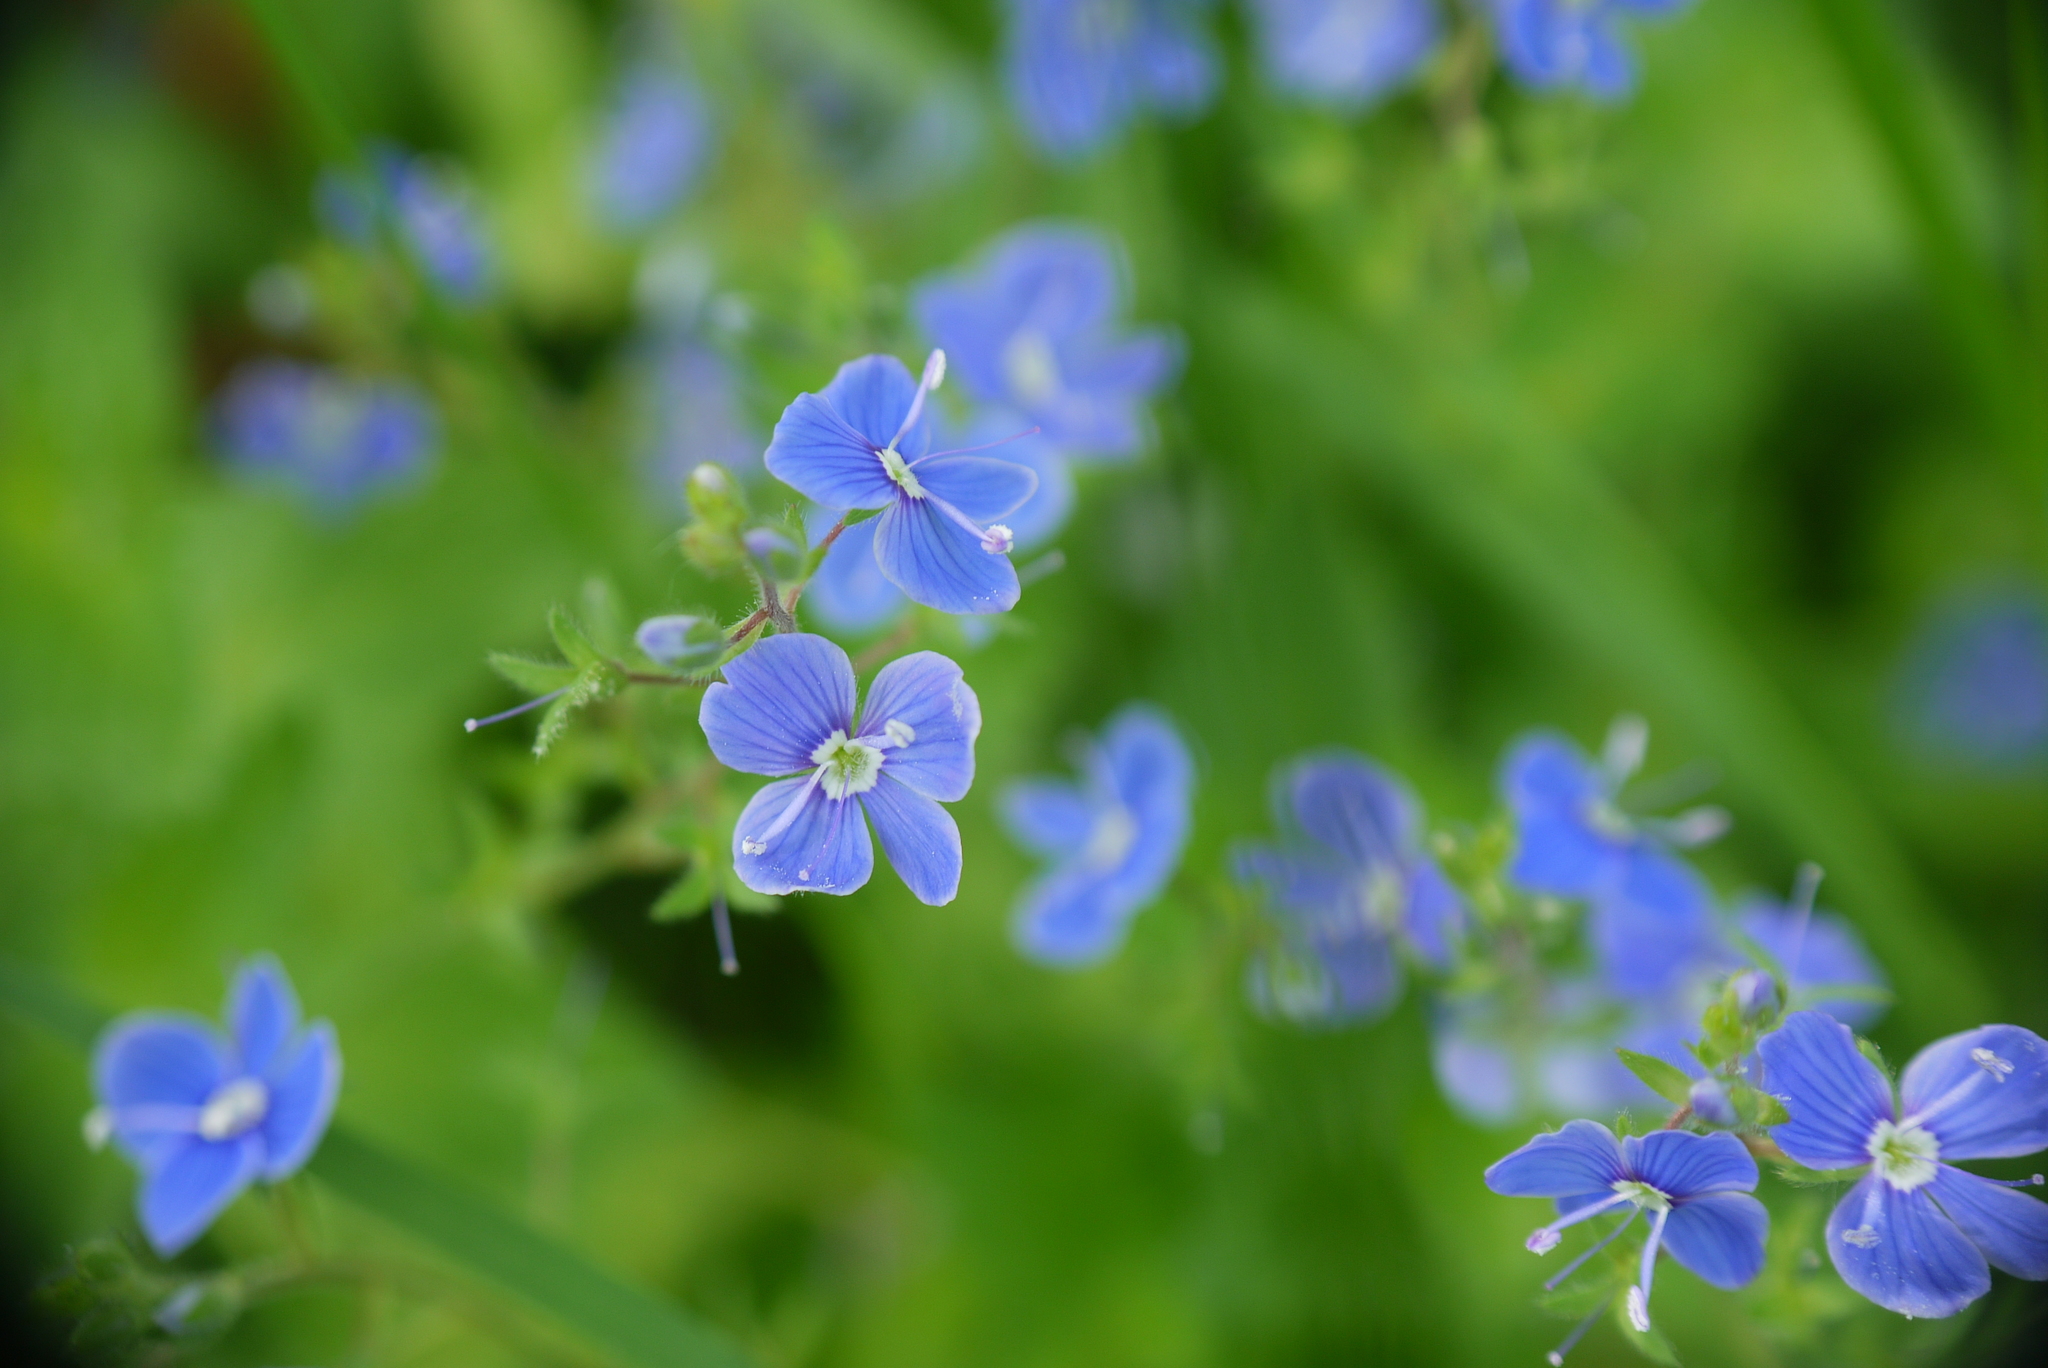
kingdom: Plantae
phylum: Tracheophyta
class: Magnoliopsida
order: Lamiales
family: Plantaginaceae
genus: Veronica
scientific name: Veronica chamaedrys
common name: Germander speedwell
